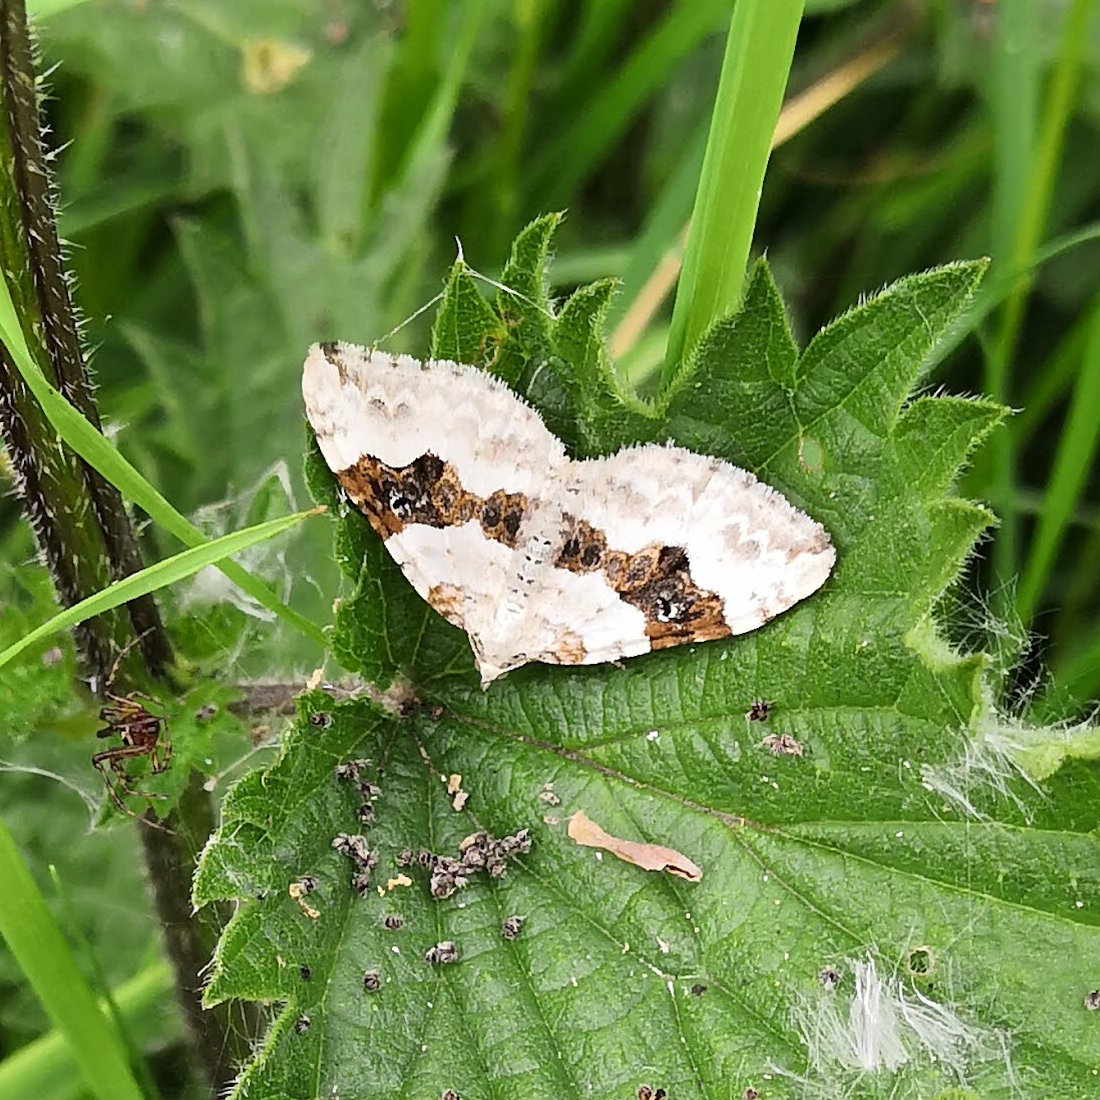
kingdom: Animalia
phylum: Arthropoda
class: Insecta
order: Lepidoptera
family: Geometridae
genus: Xanthorhoe
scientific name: Xanthorhoe montanata
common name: Silver-ground carpet
